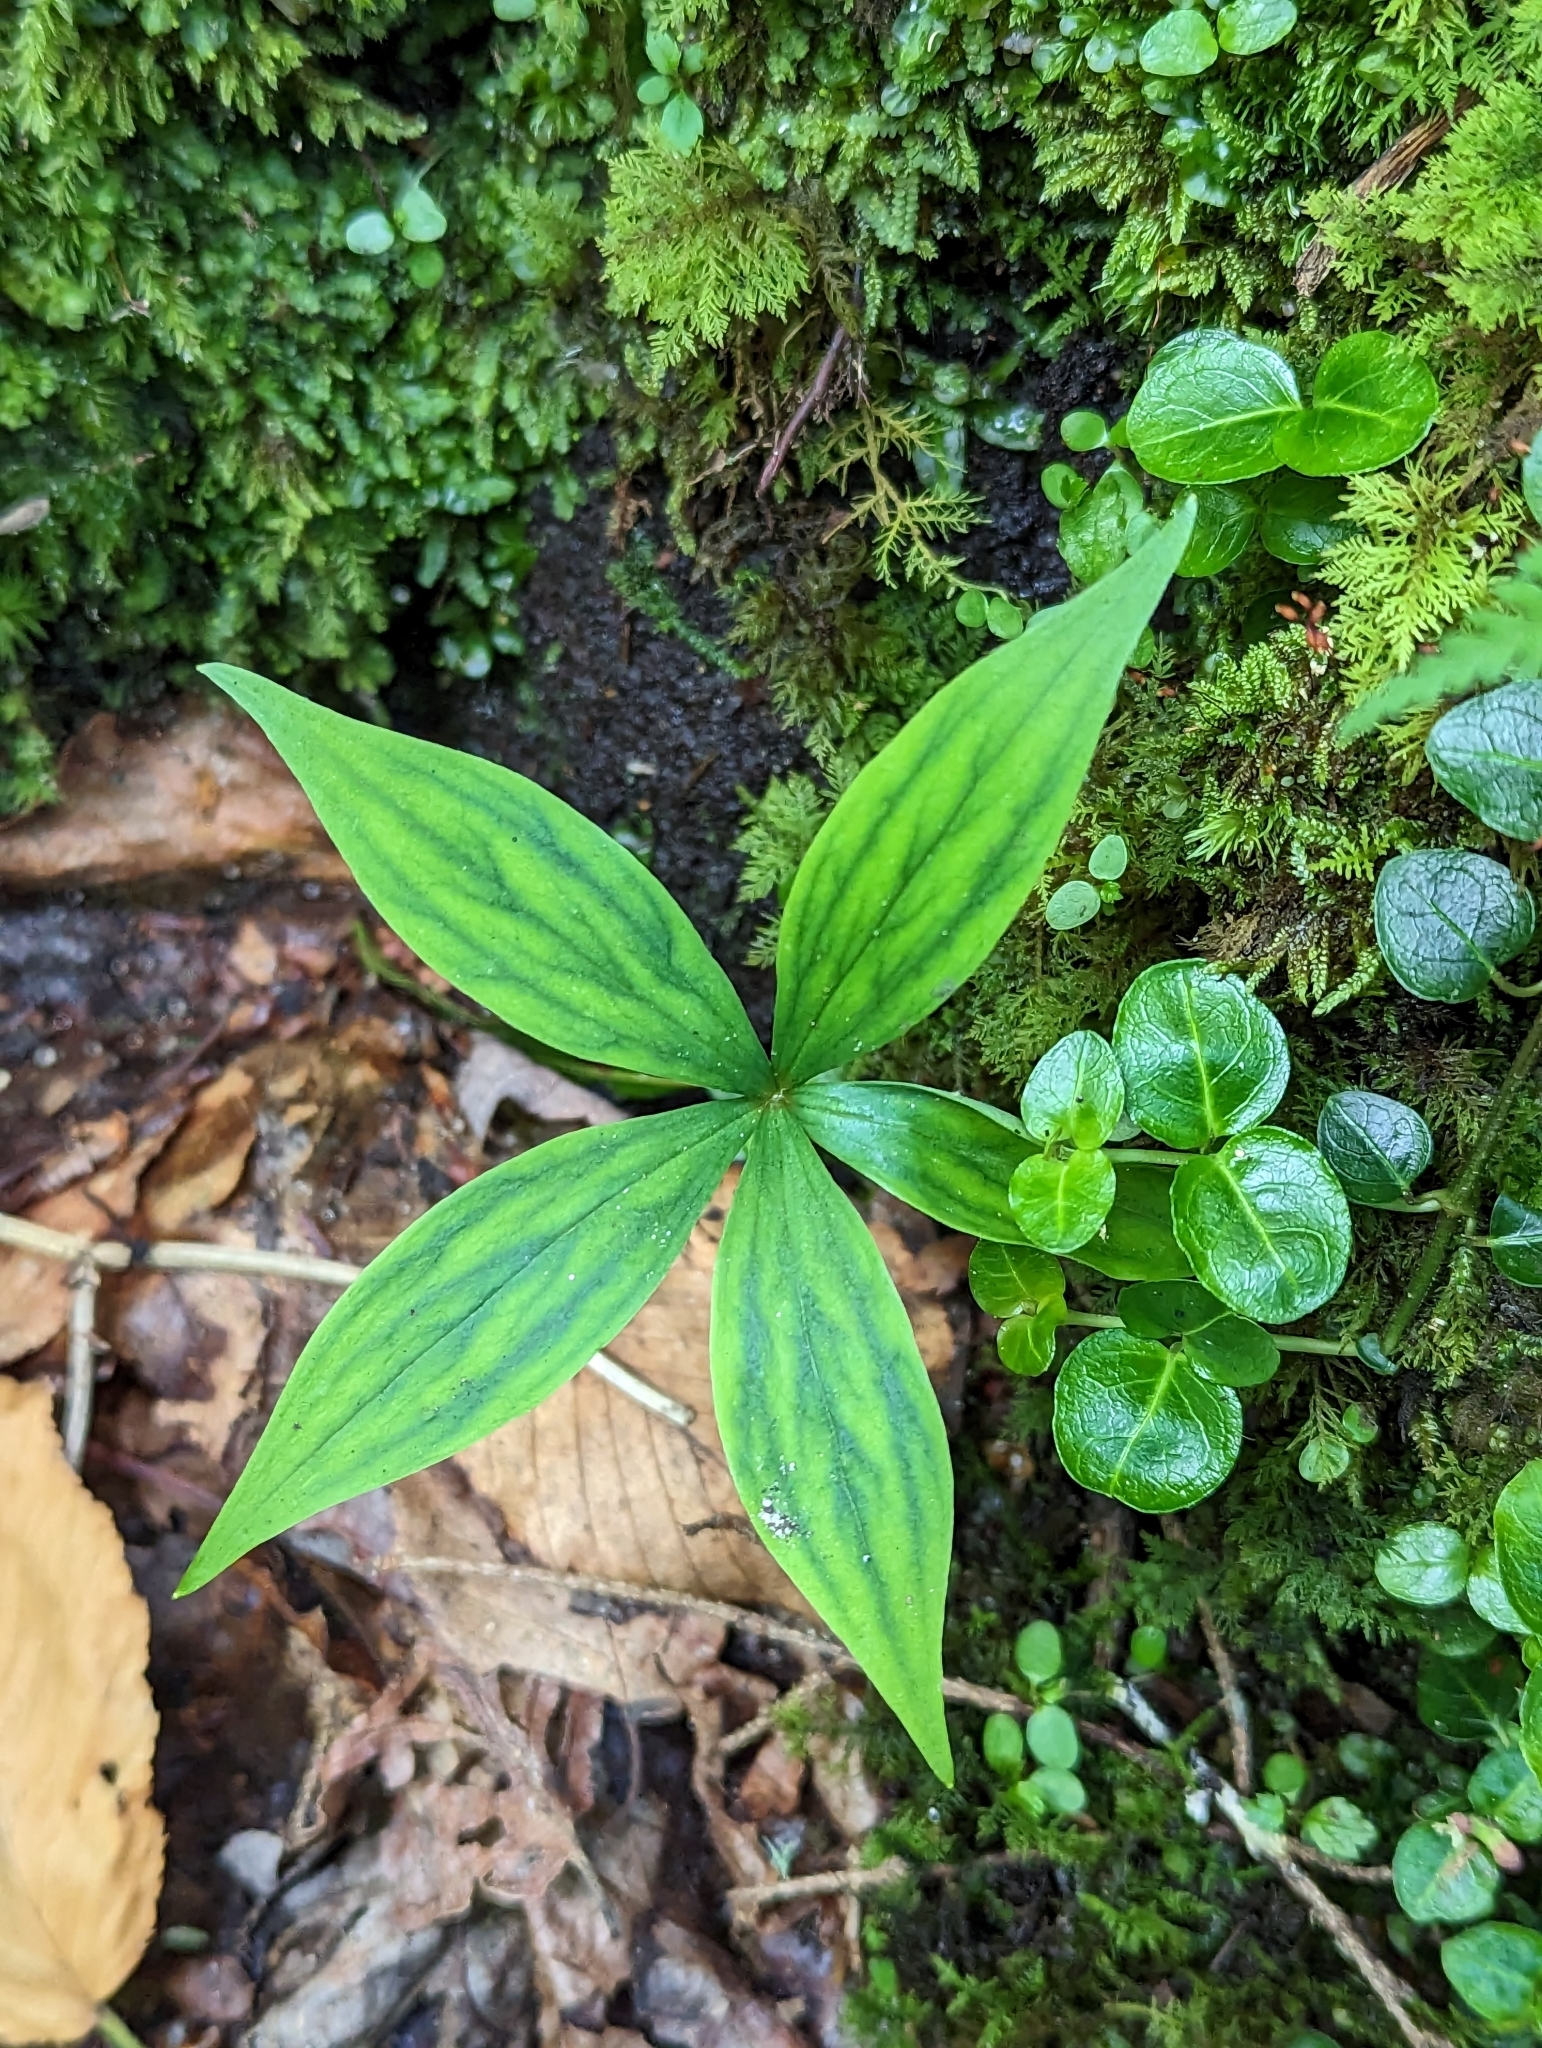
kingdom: Plantae
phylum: Tracheophyta
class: Liliopsida
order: Liliales
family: Liliaceae
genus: Medeola
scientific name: Medeola virginiana
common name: Indian cucumber-root
